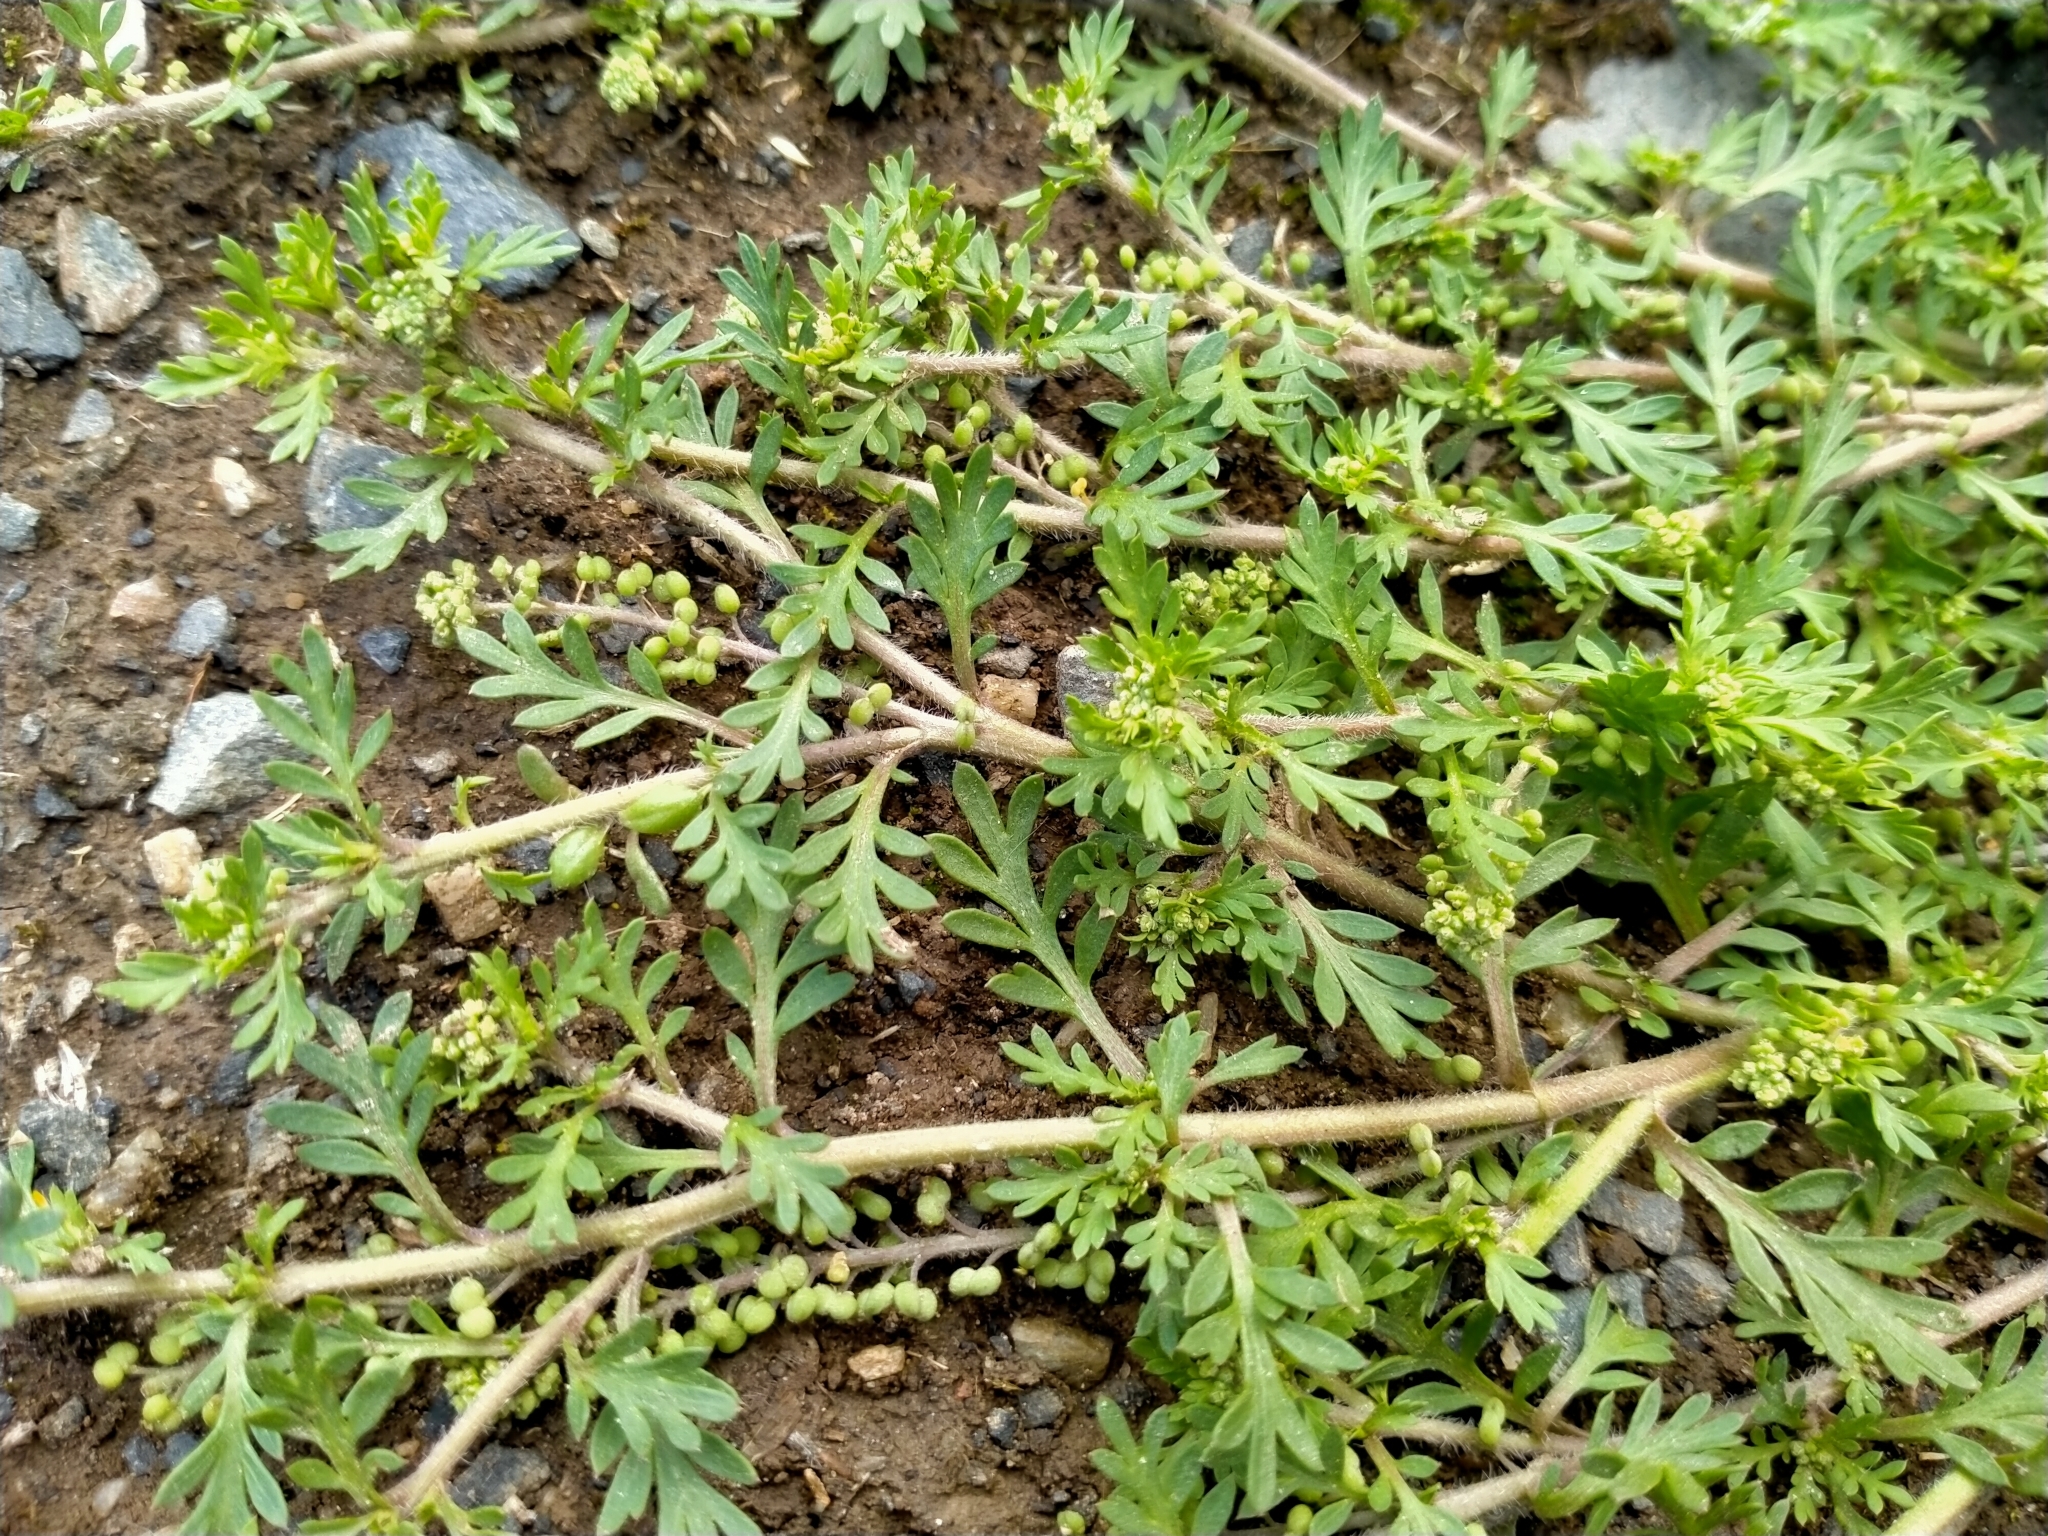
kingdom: Plantae
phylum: Tracheophyta
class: Magnoliopsida
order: Brassicales
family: Brassicaceae
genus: Lepidium
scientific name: Lepidium didymum
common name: Lesser swinecress
